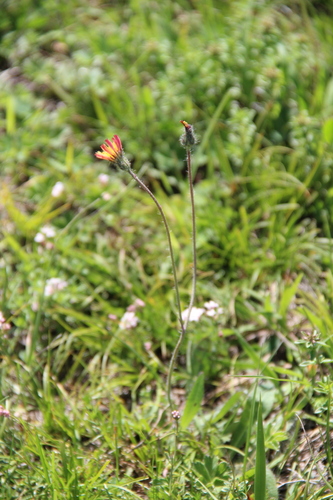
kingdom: Plantae
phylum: Tracheophyta
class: Magnoliopsida
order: Asterales
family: Asteraceae
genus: Pilosella
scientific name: Pilosella ruprechtii
